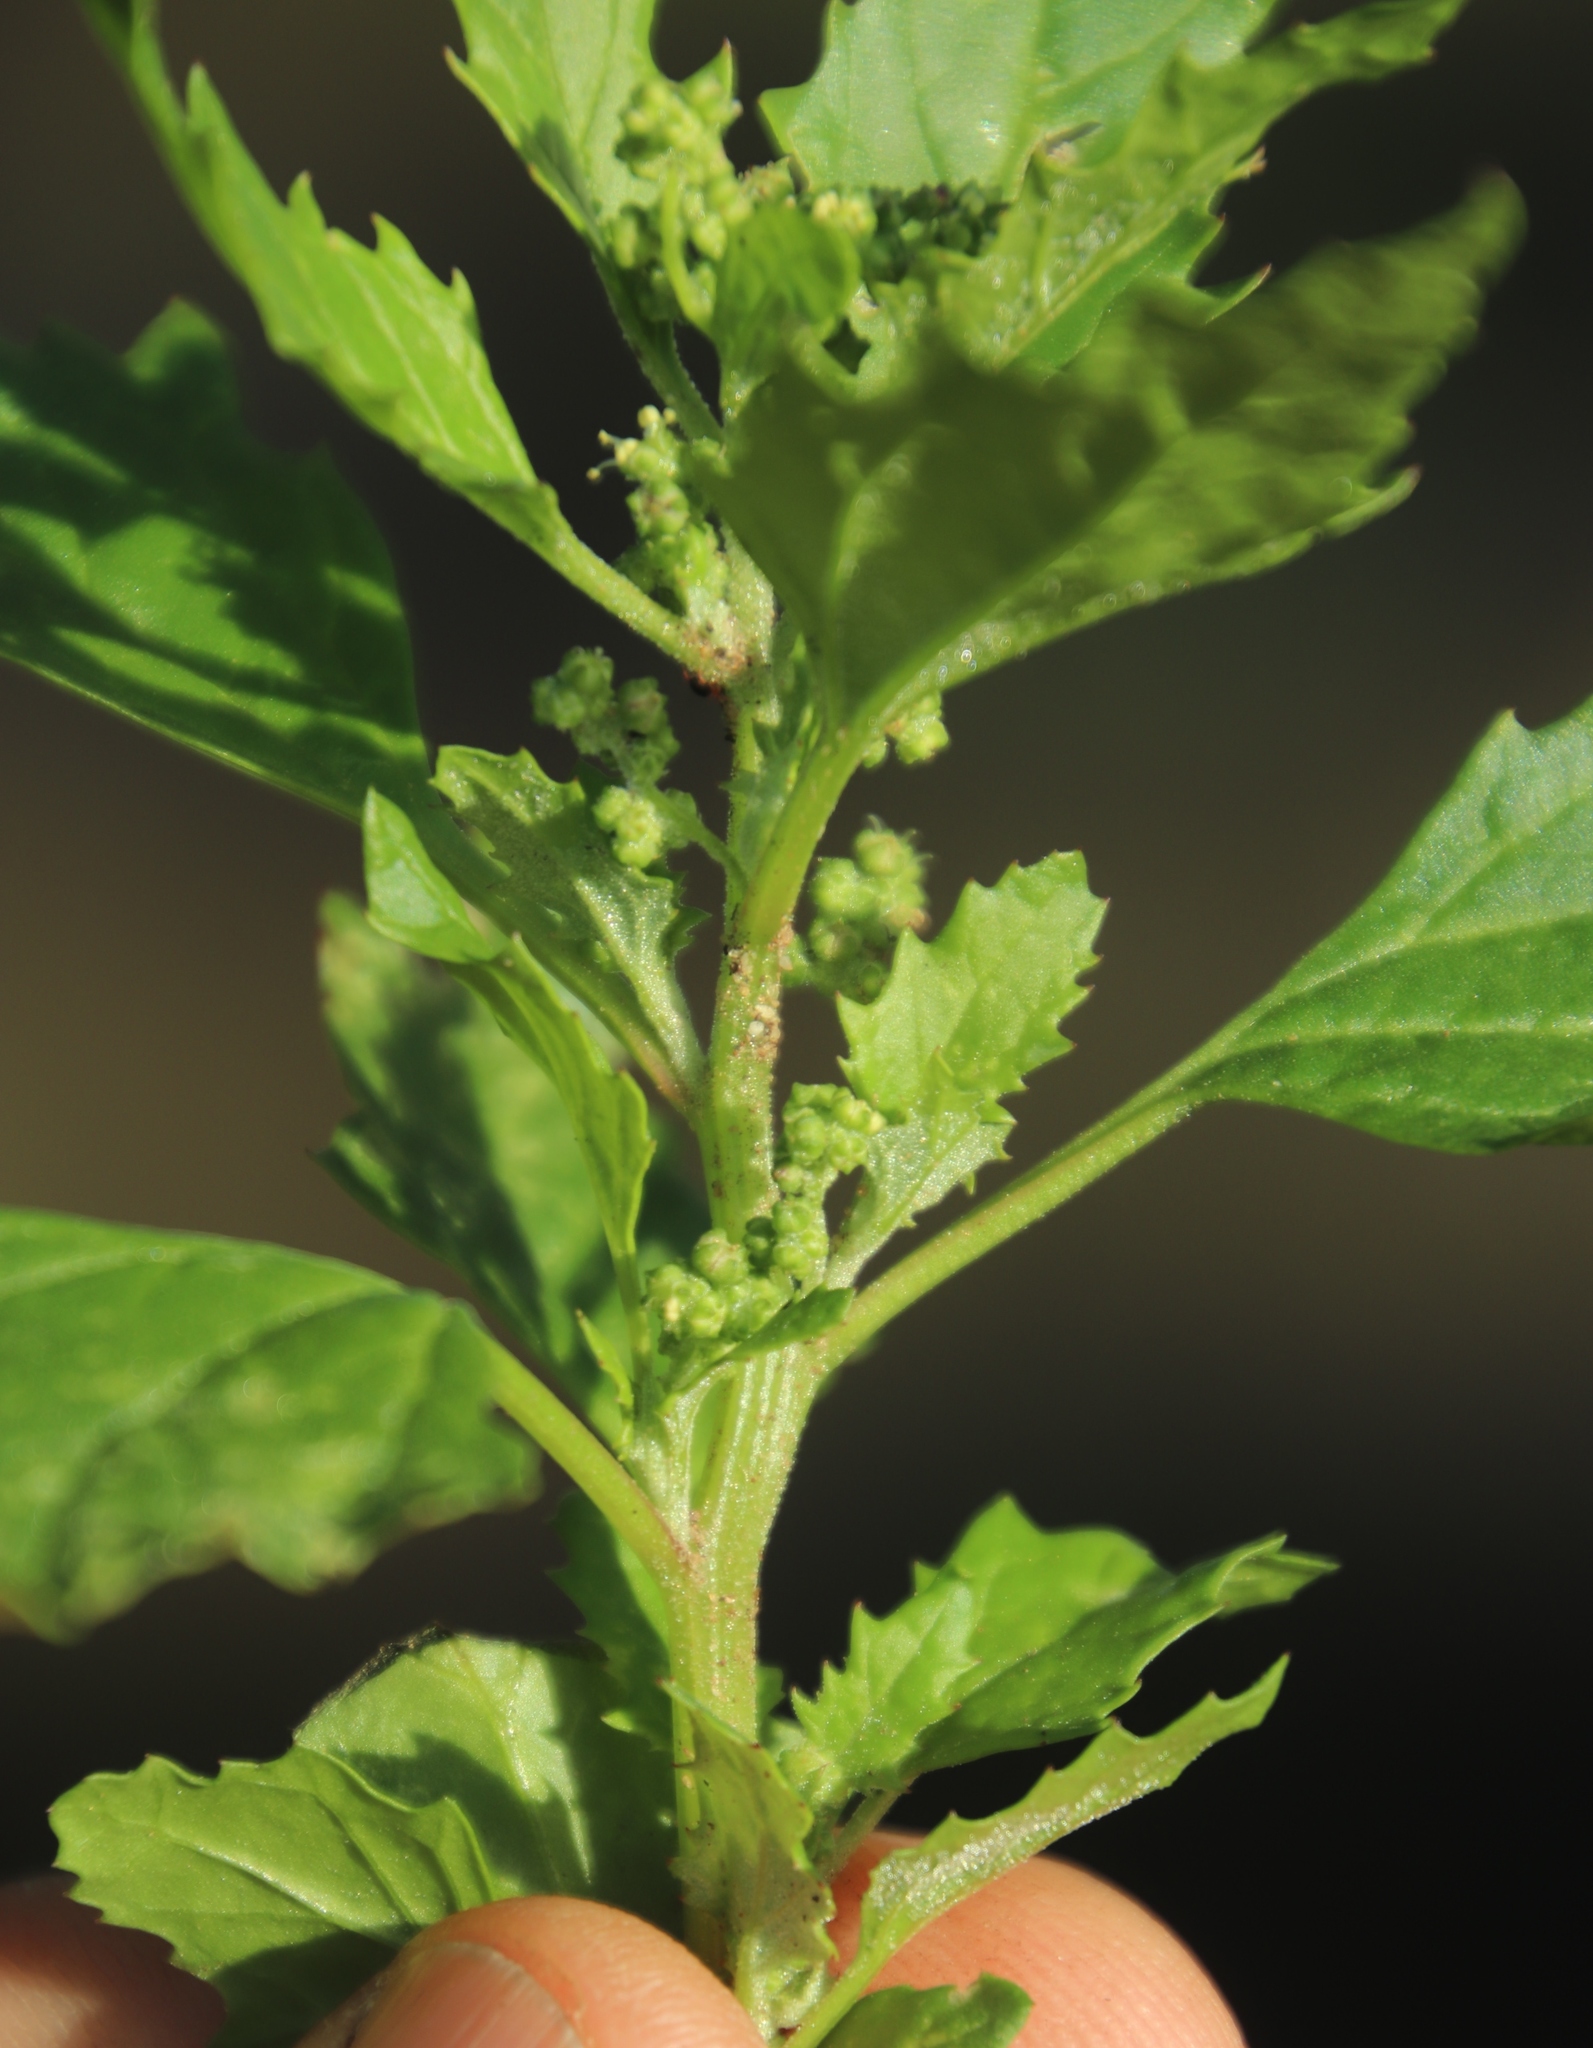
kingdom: Plantae
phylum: Tracheophyta
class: Magnoliopsida
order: Caryophyllales
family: Amaranthaceae
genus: Chenopodiastrum
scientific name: Chenopodiastrum murale
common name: Sowbane
